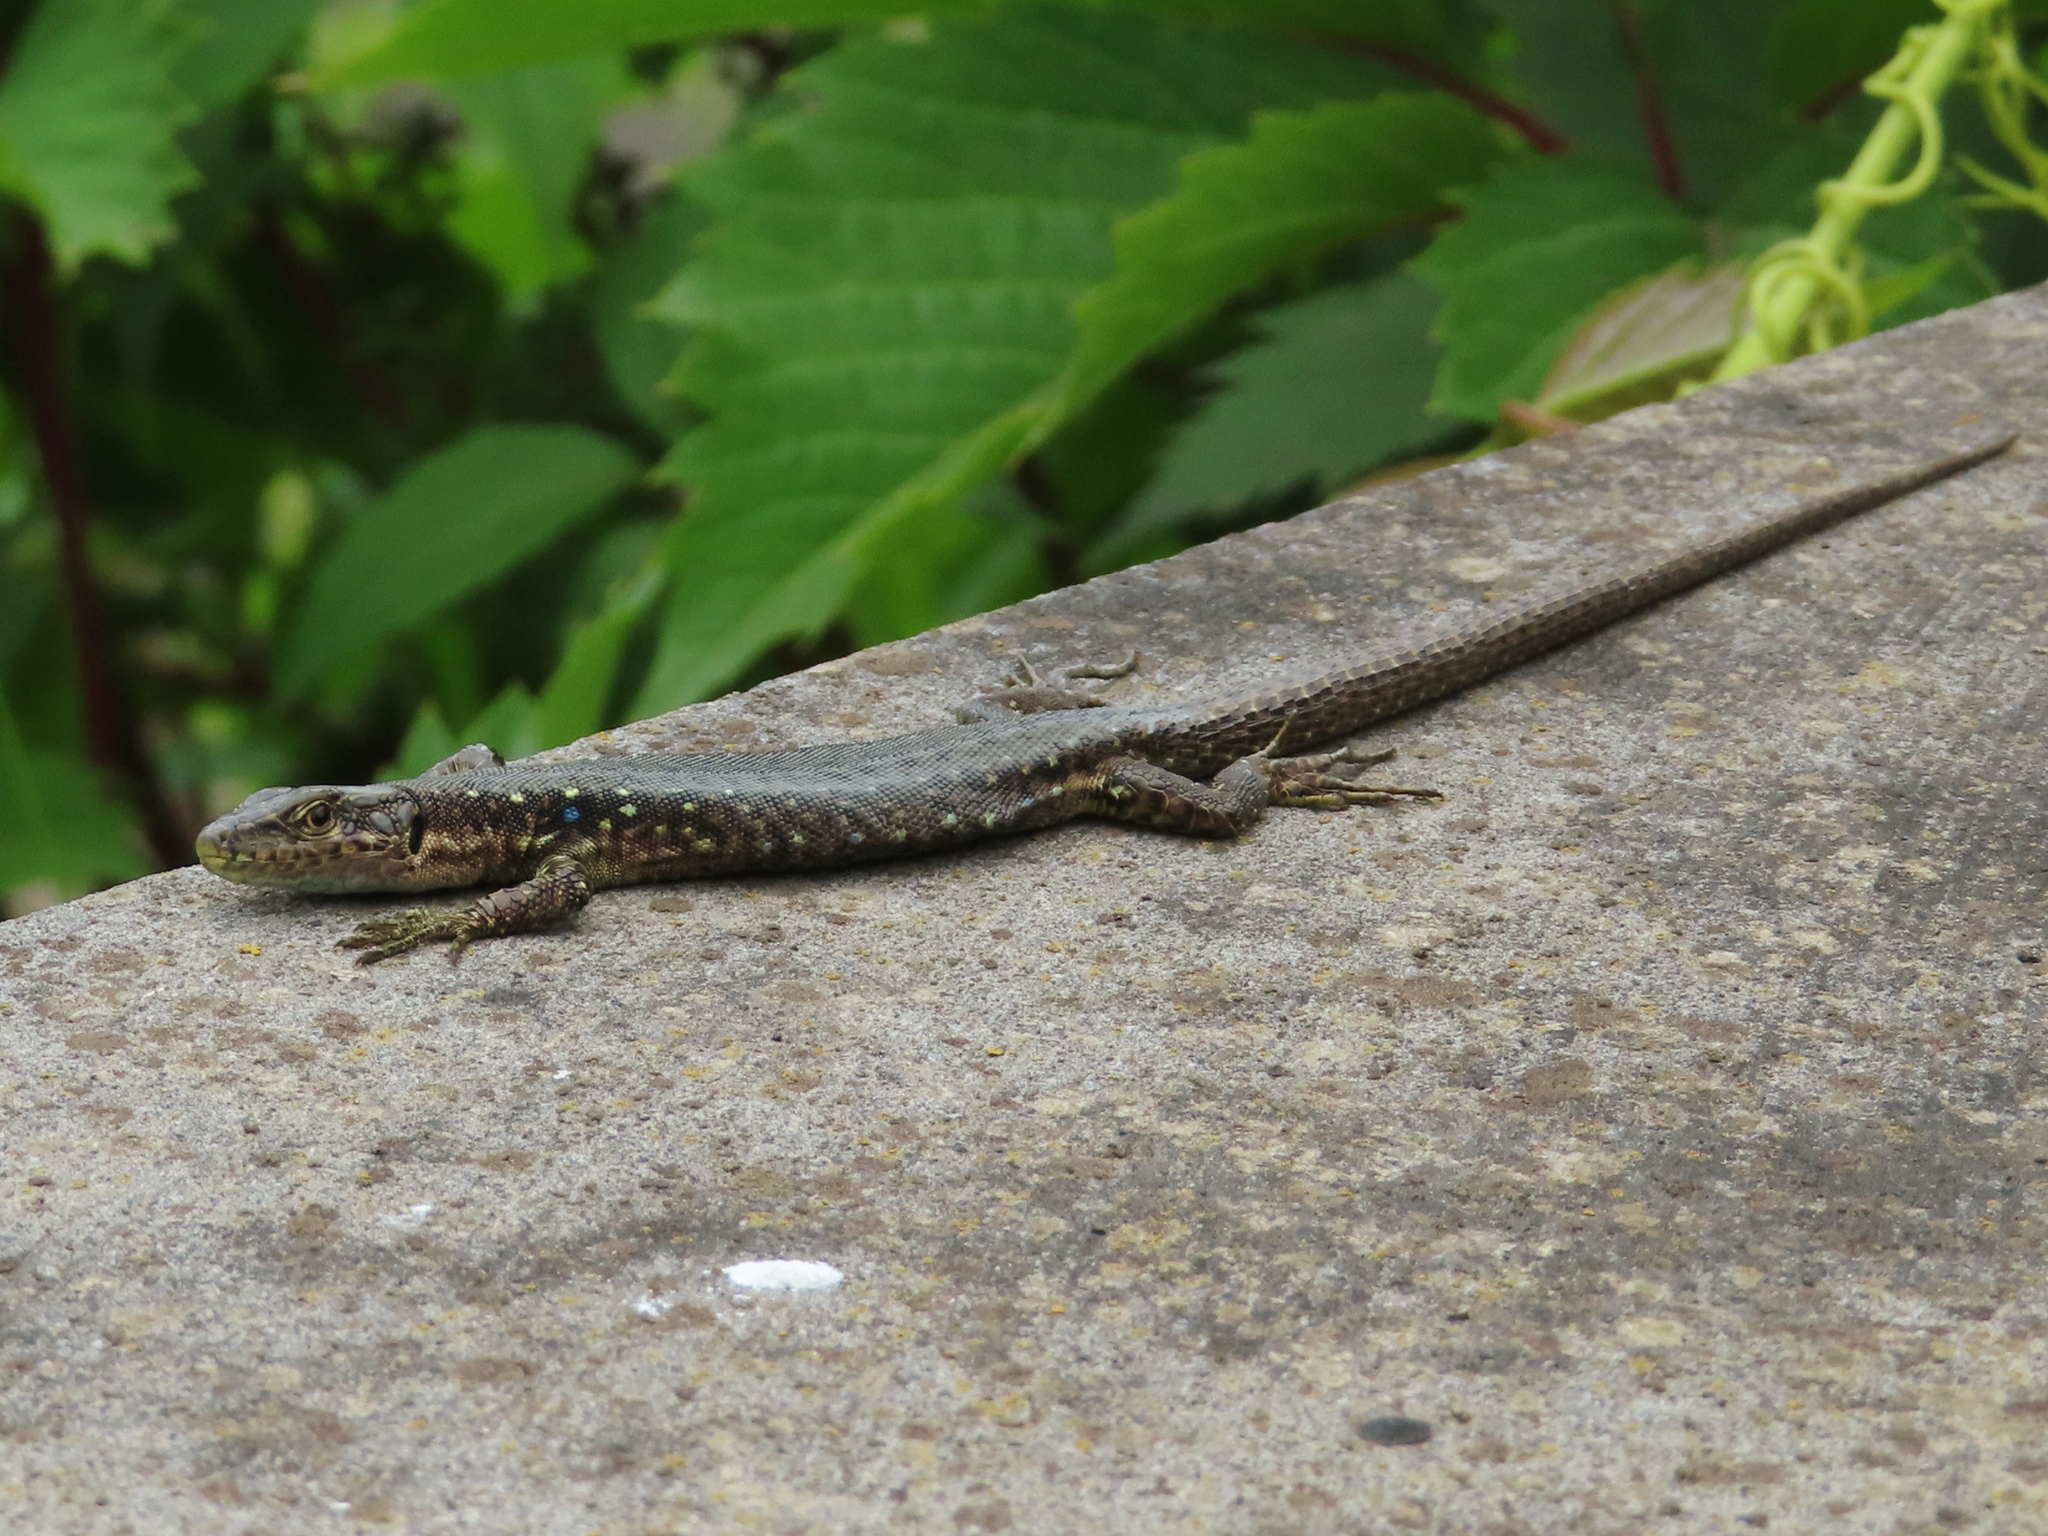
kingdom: Animalia
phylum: Chordata
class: Squamata
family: Lacertidae
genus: Darevskia
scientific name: Darevskia armeniaca
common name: Armenian lizard
